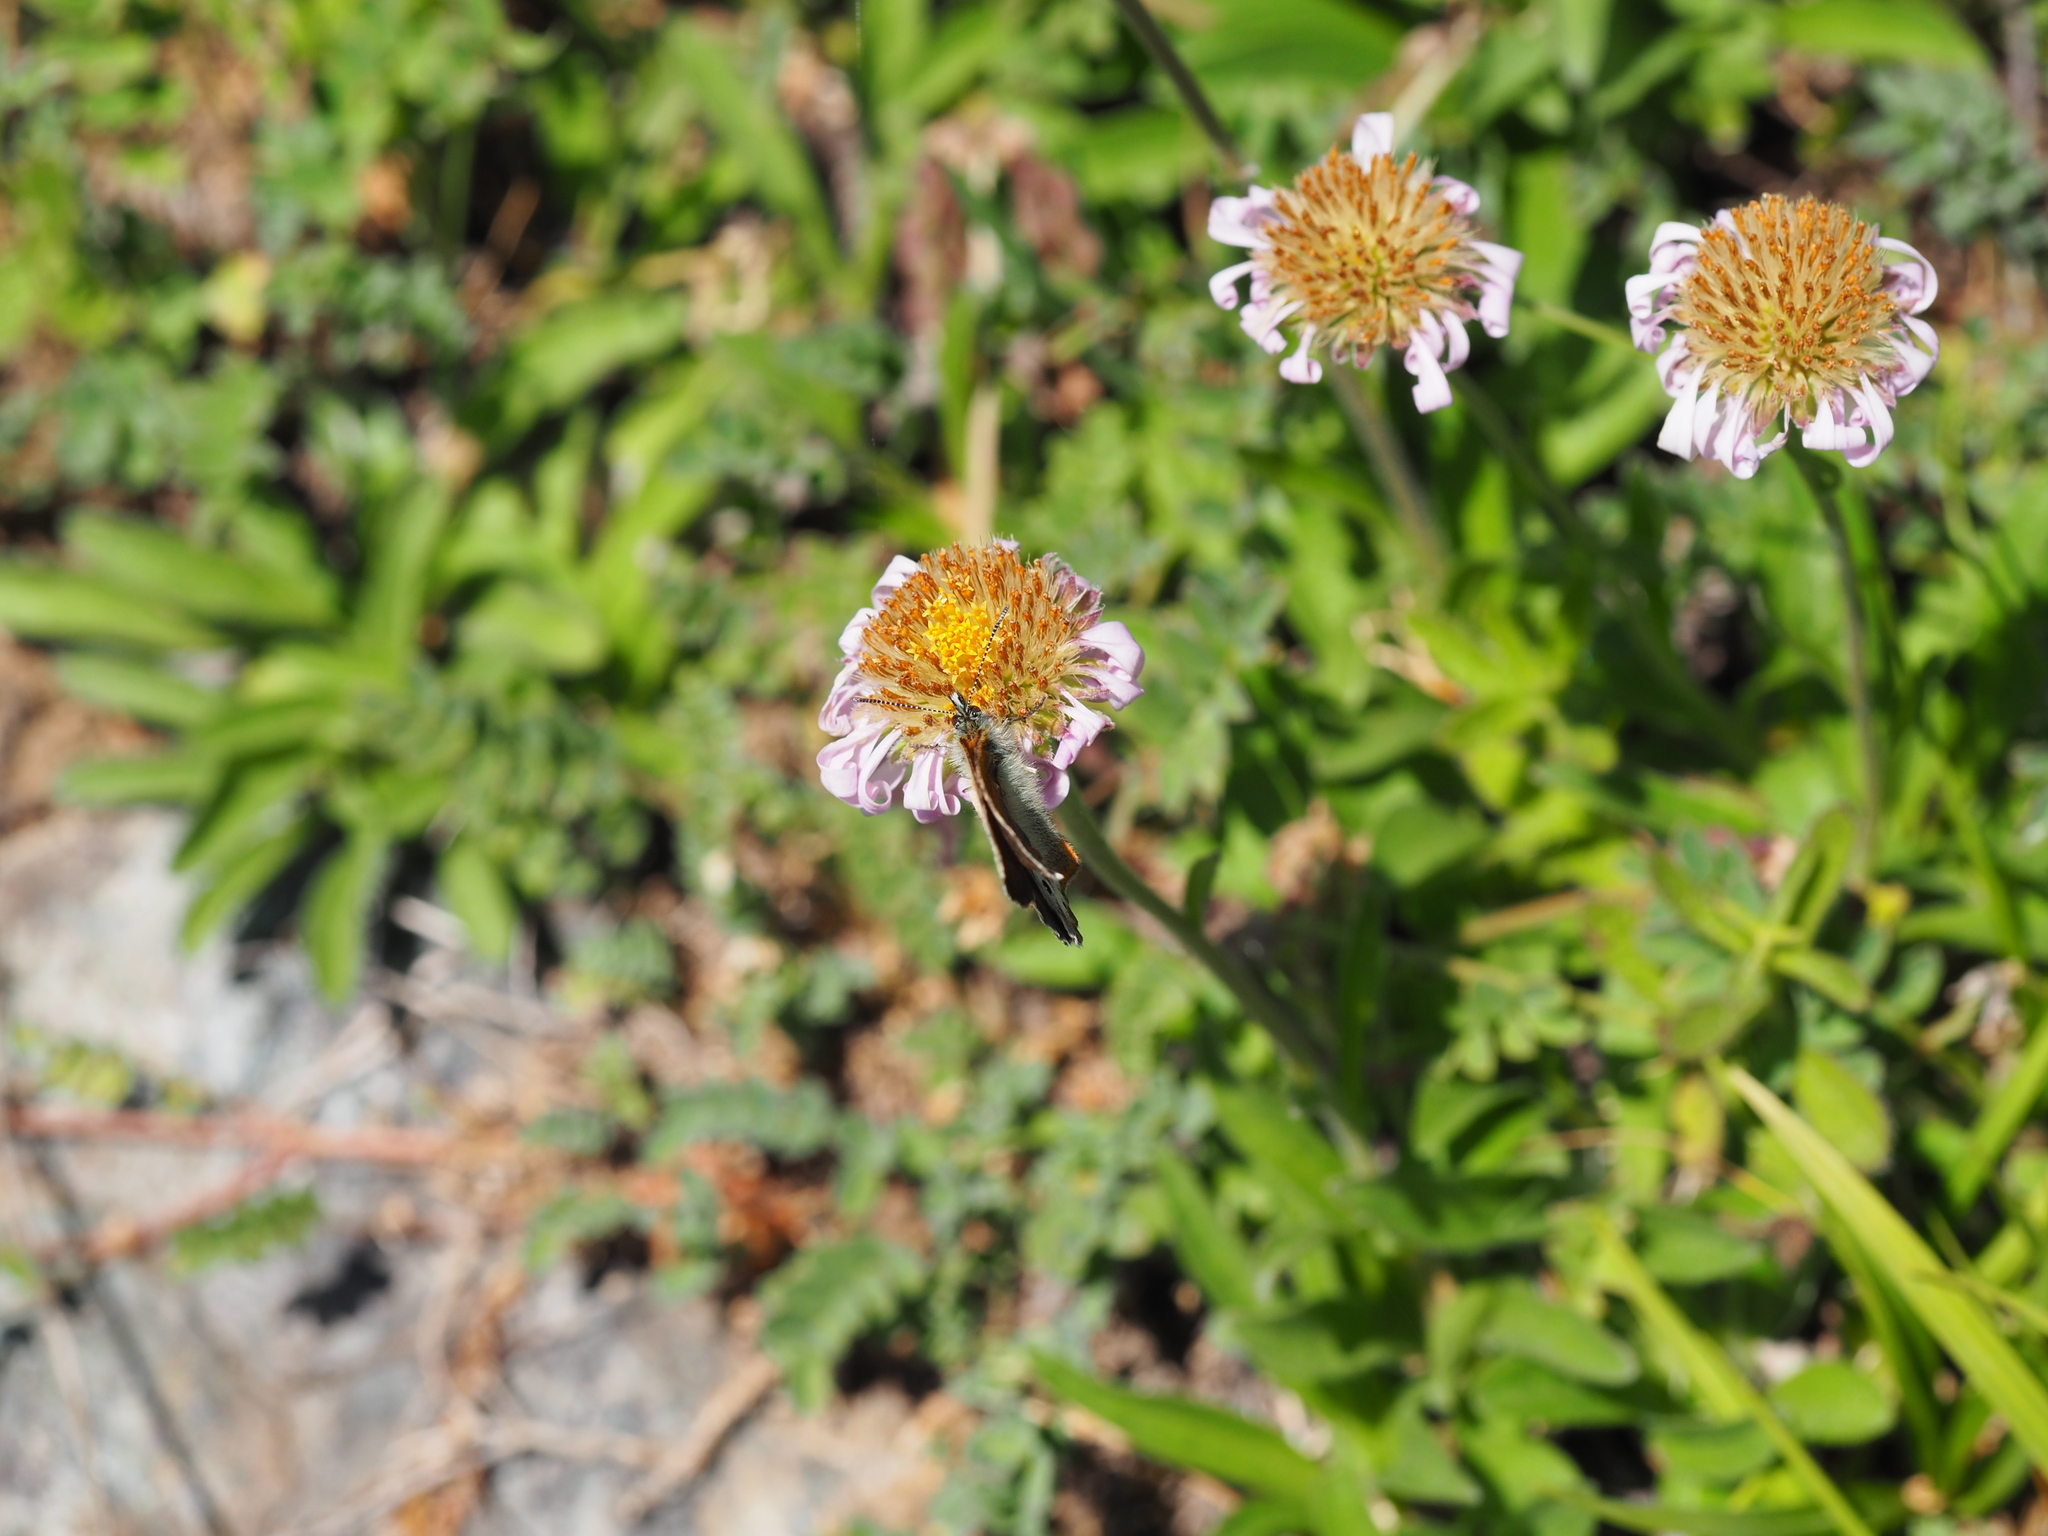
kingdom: Animalia
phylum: Arthropoda
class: Insecta
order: Lepidoptera
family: Nymphalidae
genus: Coenonympha
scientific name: Coenonympha
